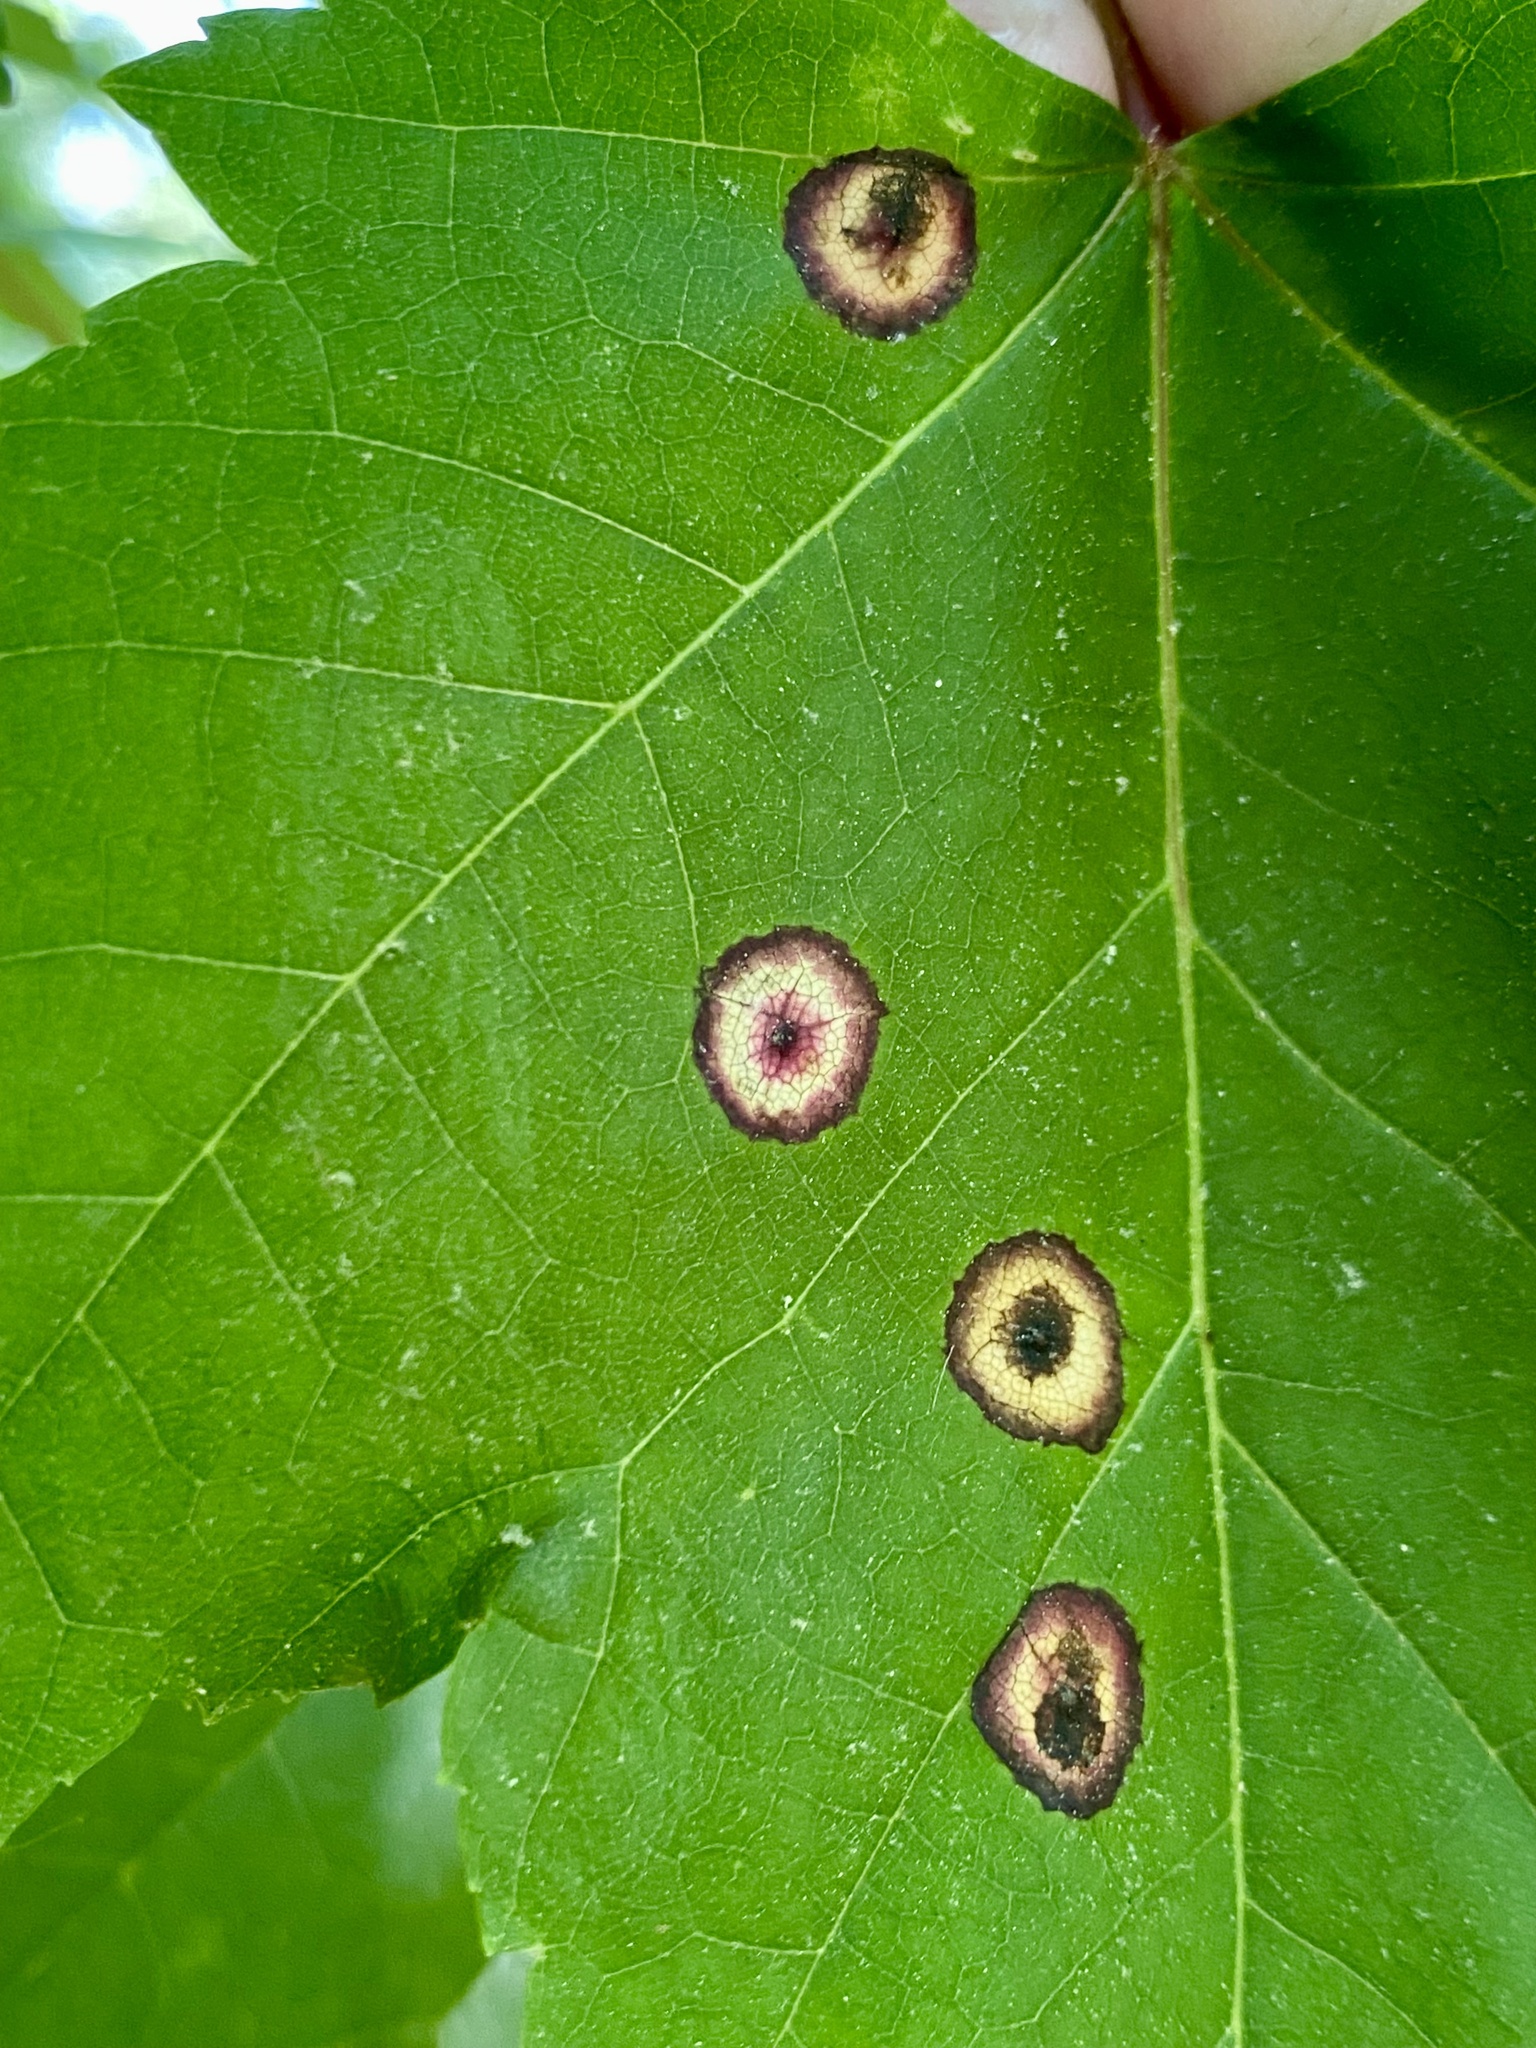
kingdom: Animalia
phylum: Arthropoda
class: Insecta
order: Diptera
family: Cecidomyiidae
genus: Acericecis
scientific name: Acericecis ocellaris
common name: Ocellate gall midge
